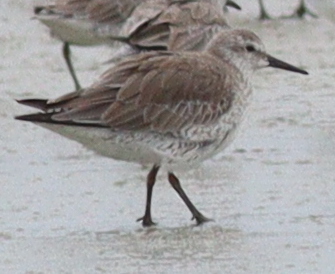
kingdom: Animalia
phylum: Chordata
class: Aves
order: Charadriiformes
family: Scolopacidae
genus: Calidris
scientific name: Calidris canutus
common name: Red knot
